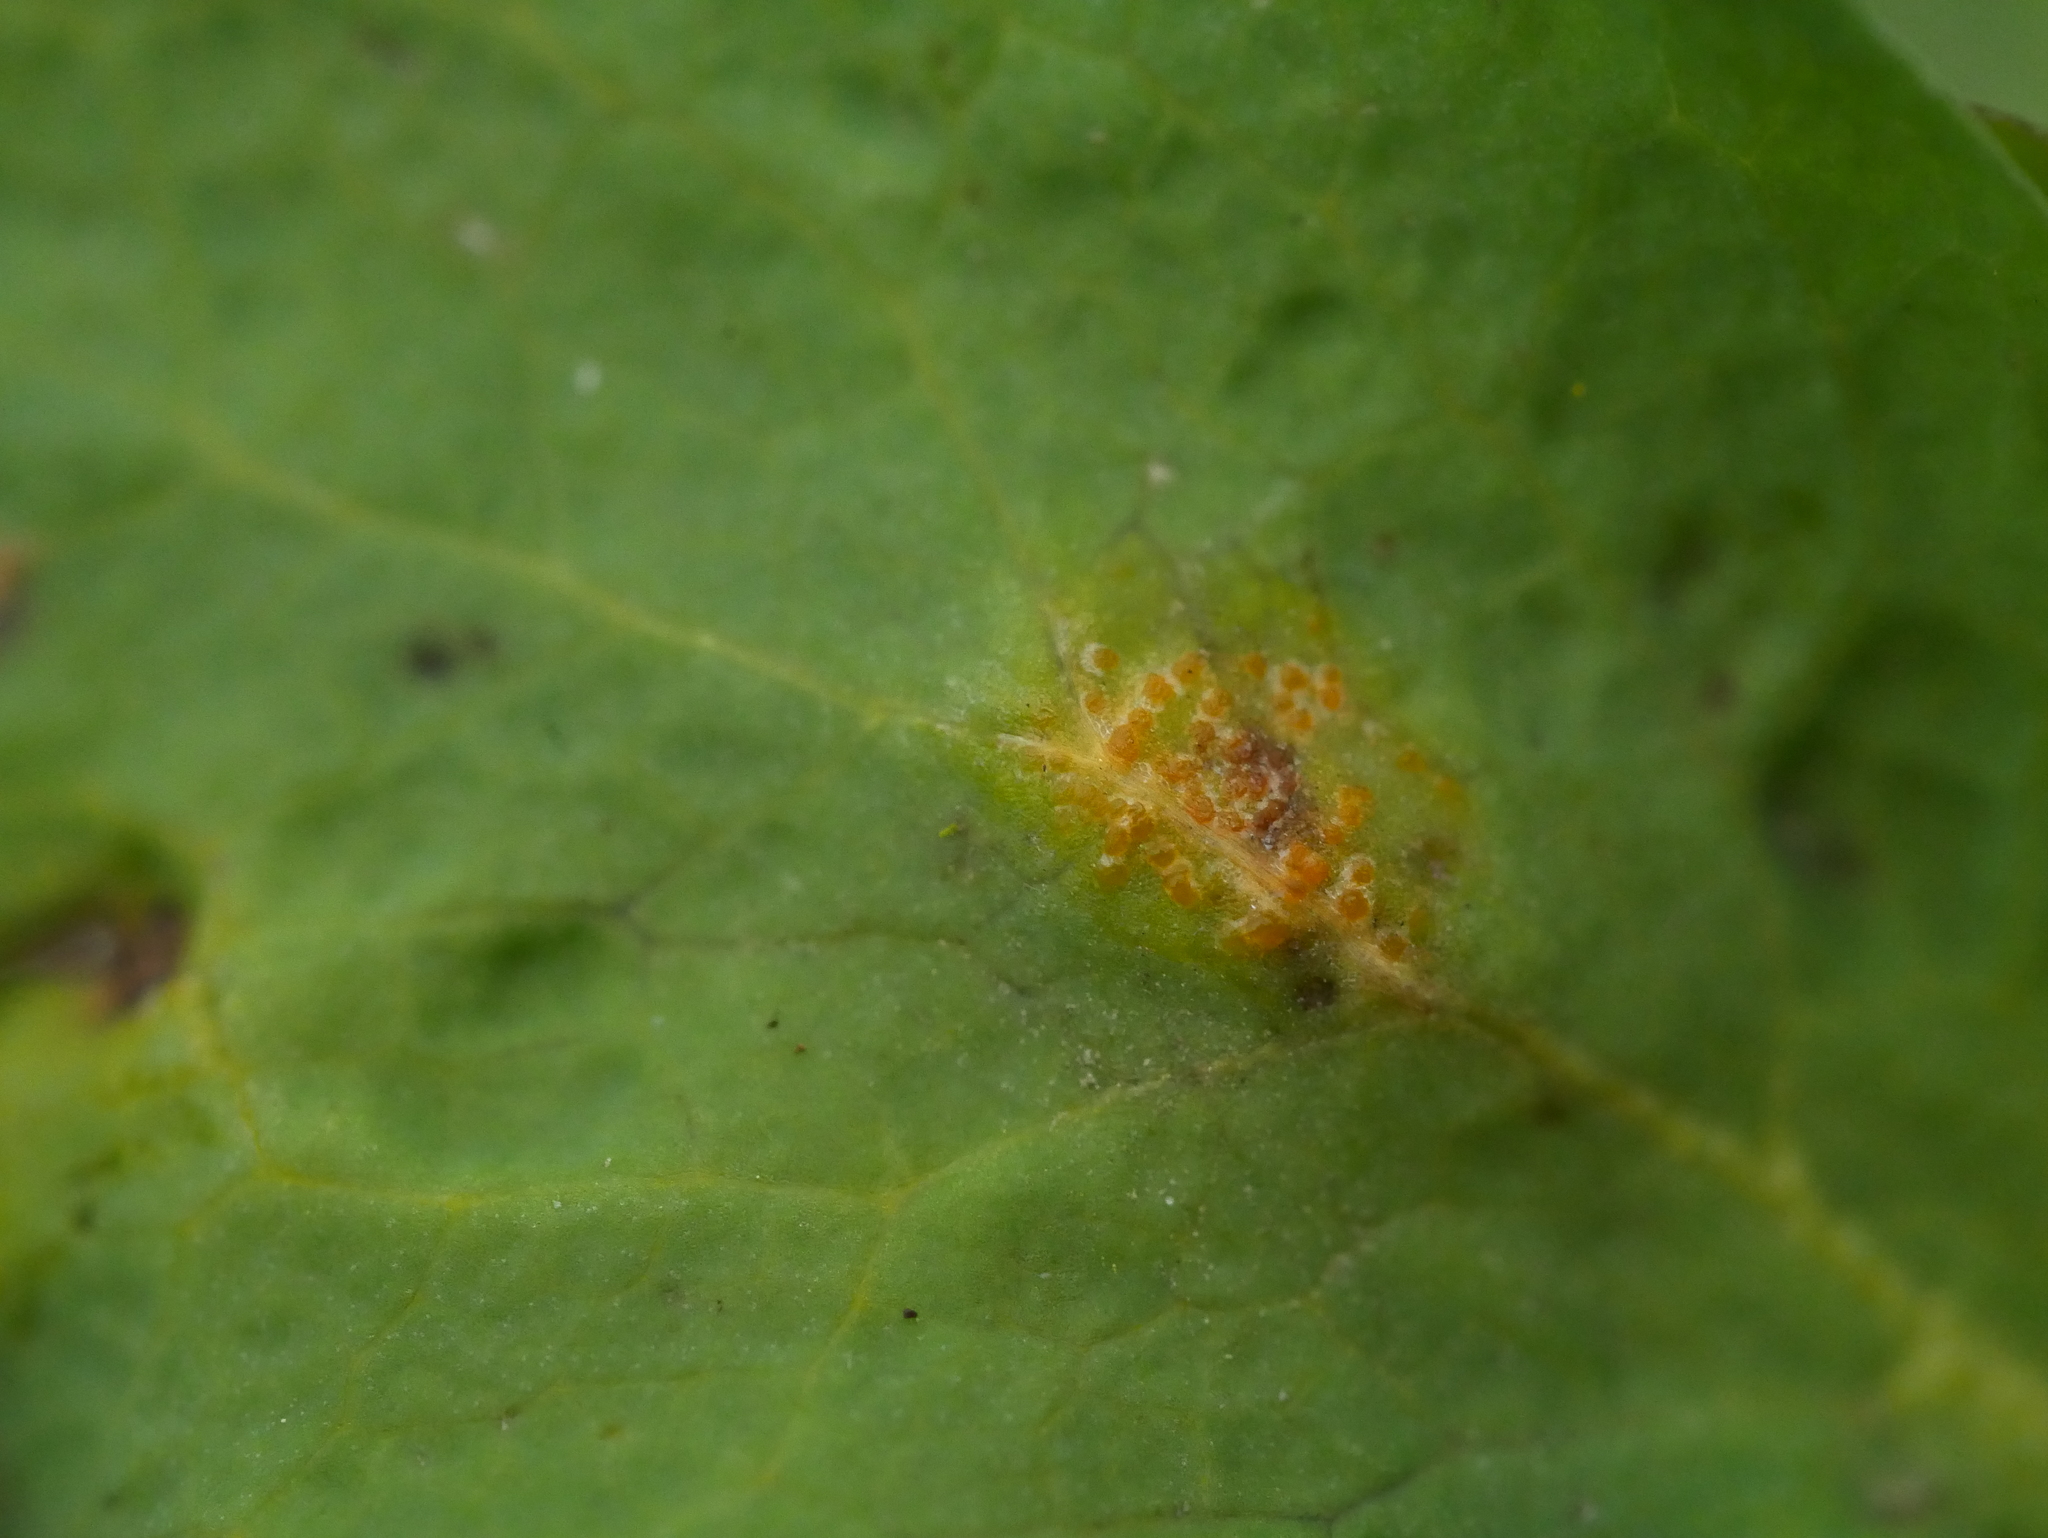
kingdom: Fungi
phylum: Basidiomycota
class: Pucciniomycetes
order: Pucciniales
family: Melampsoraceae
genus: Melampsora
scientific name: Melampsora magnusiana
